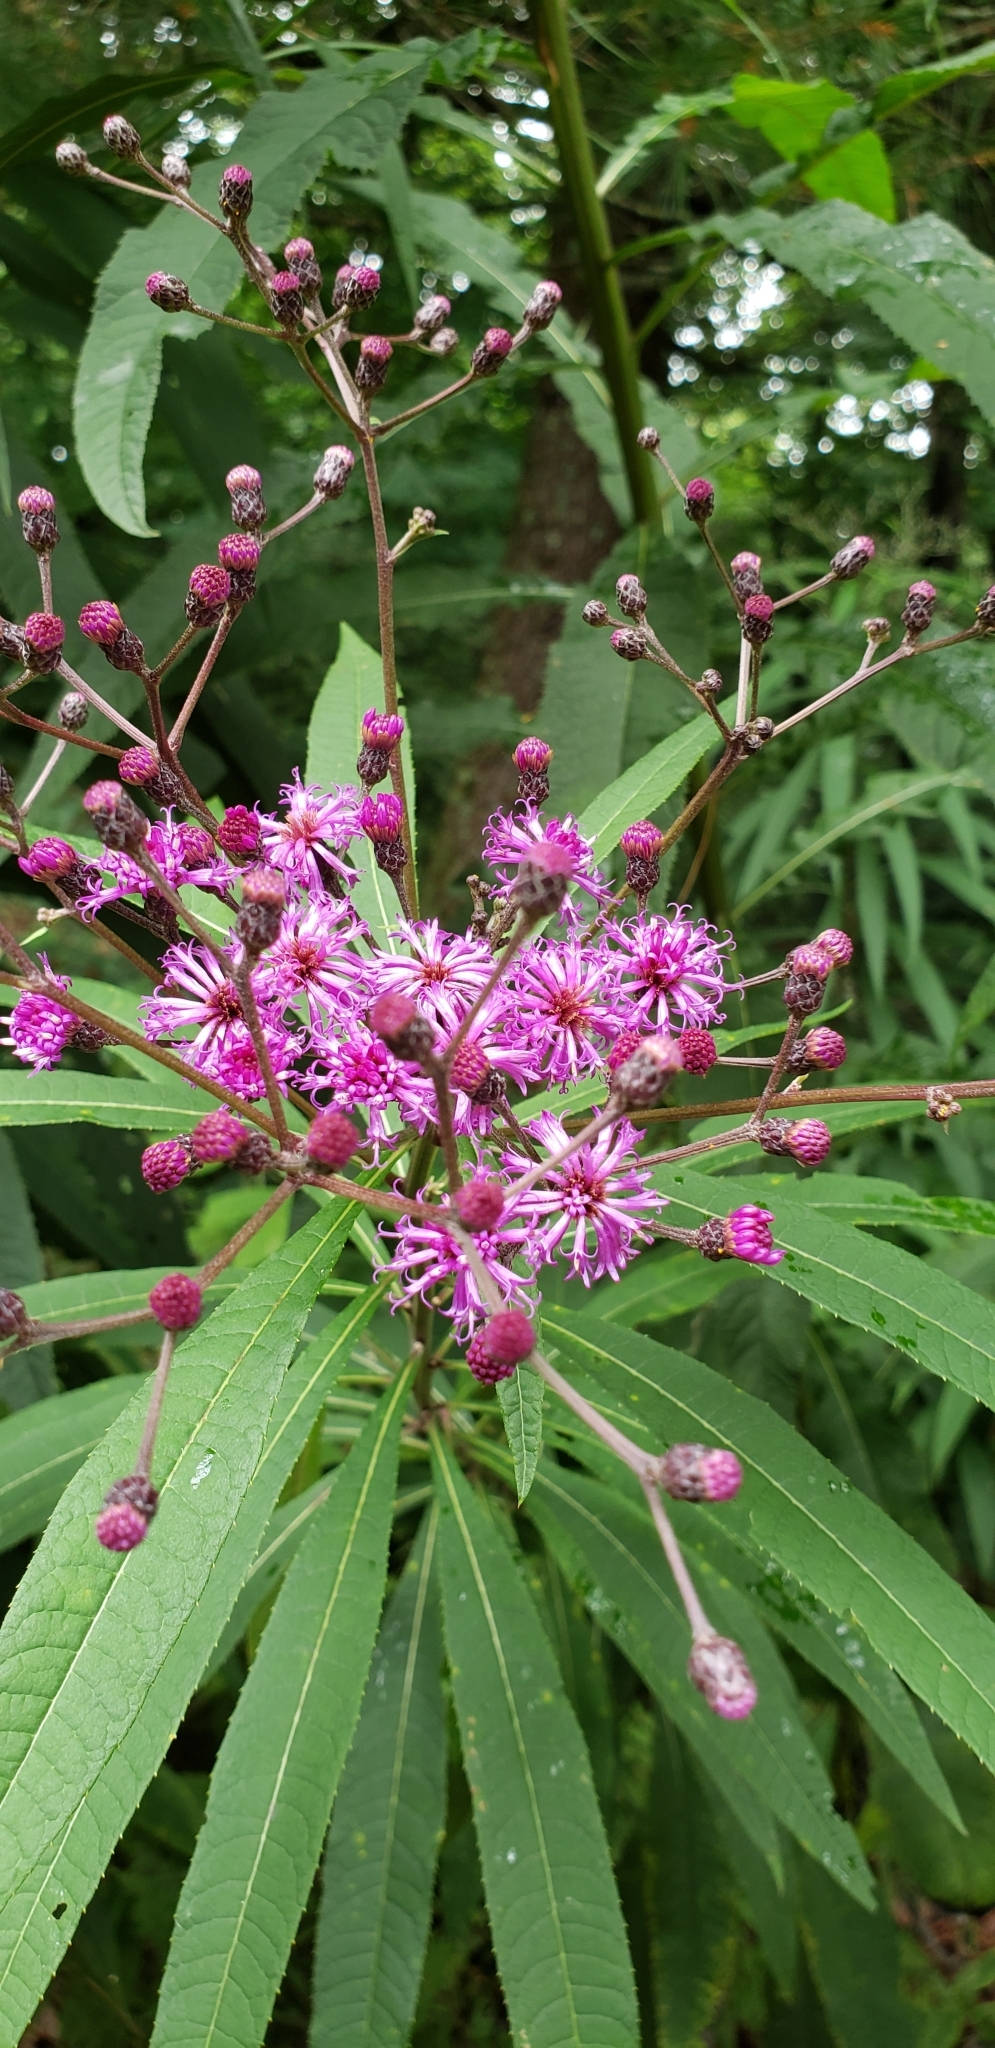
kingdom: Plantae
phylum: Tracheophyta
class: Magnoliopsida
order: Asterales
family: Asteraceae
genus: Vernonia
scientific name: Vernonia gigantea
